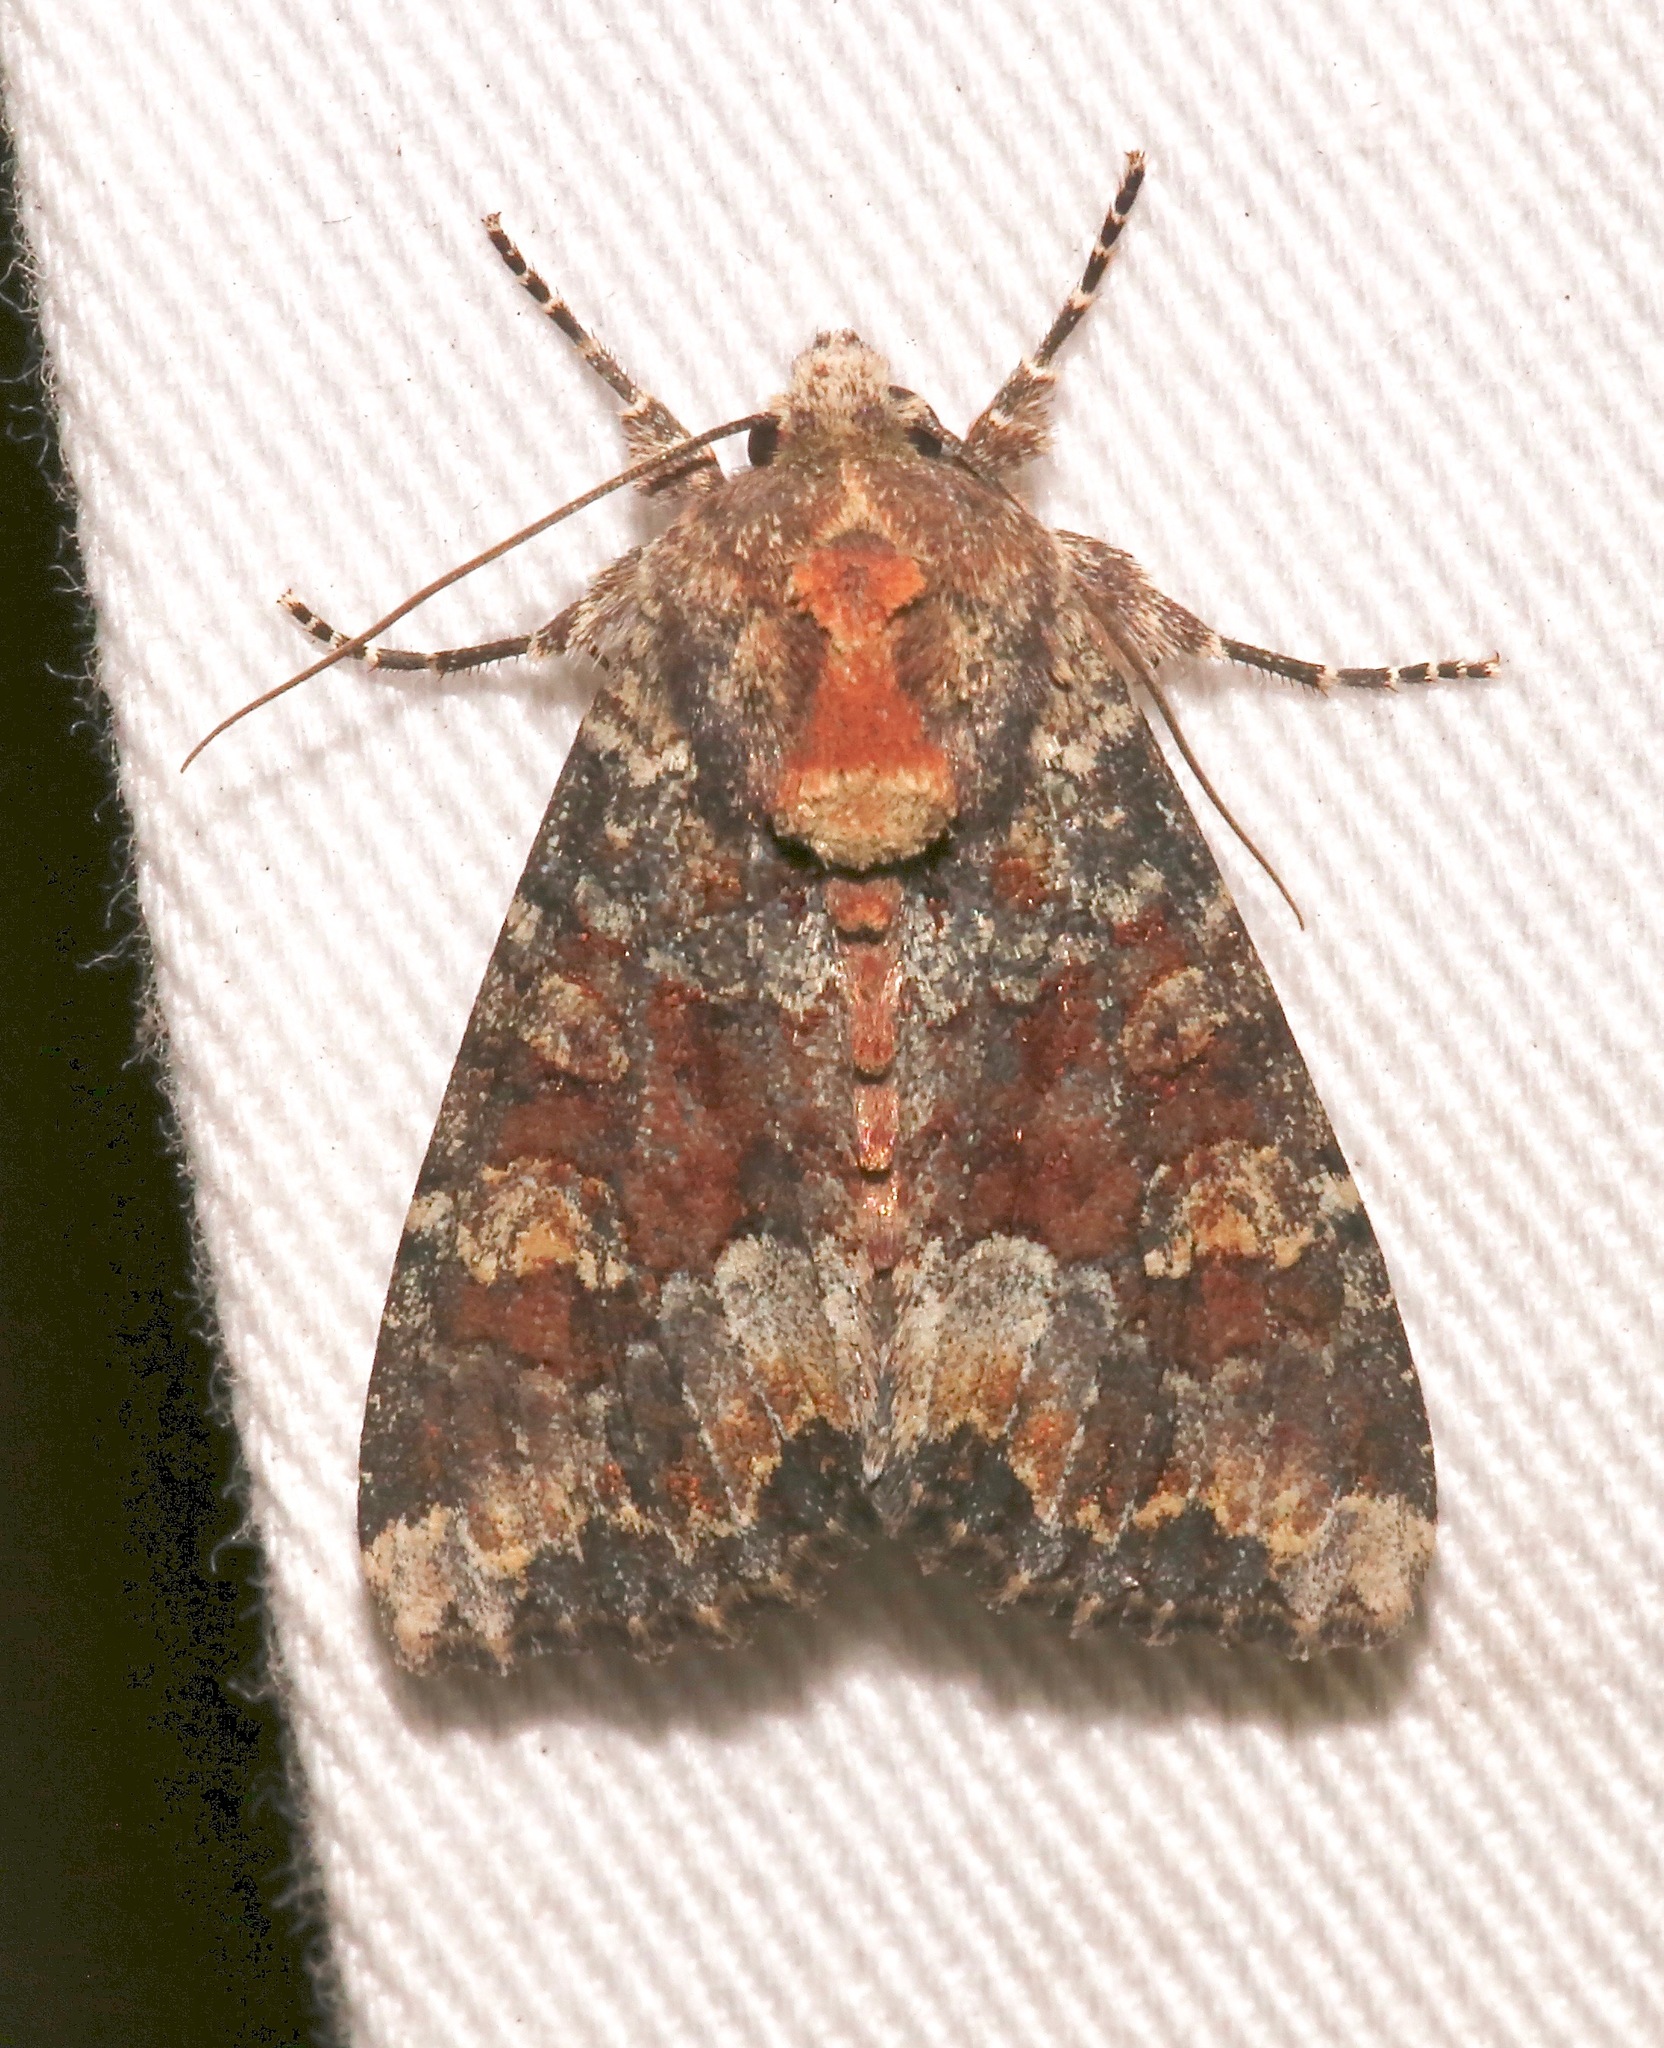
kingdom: Animalia
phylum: Arthropoda
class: Insecta
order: Lepidoptera
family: Noctuidae
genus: Apamea
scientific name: Apamea amputatrix
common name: Yellow-headed cutworm moth
